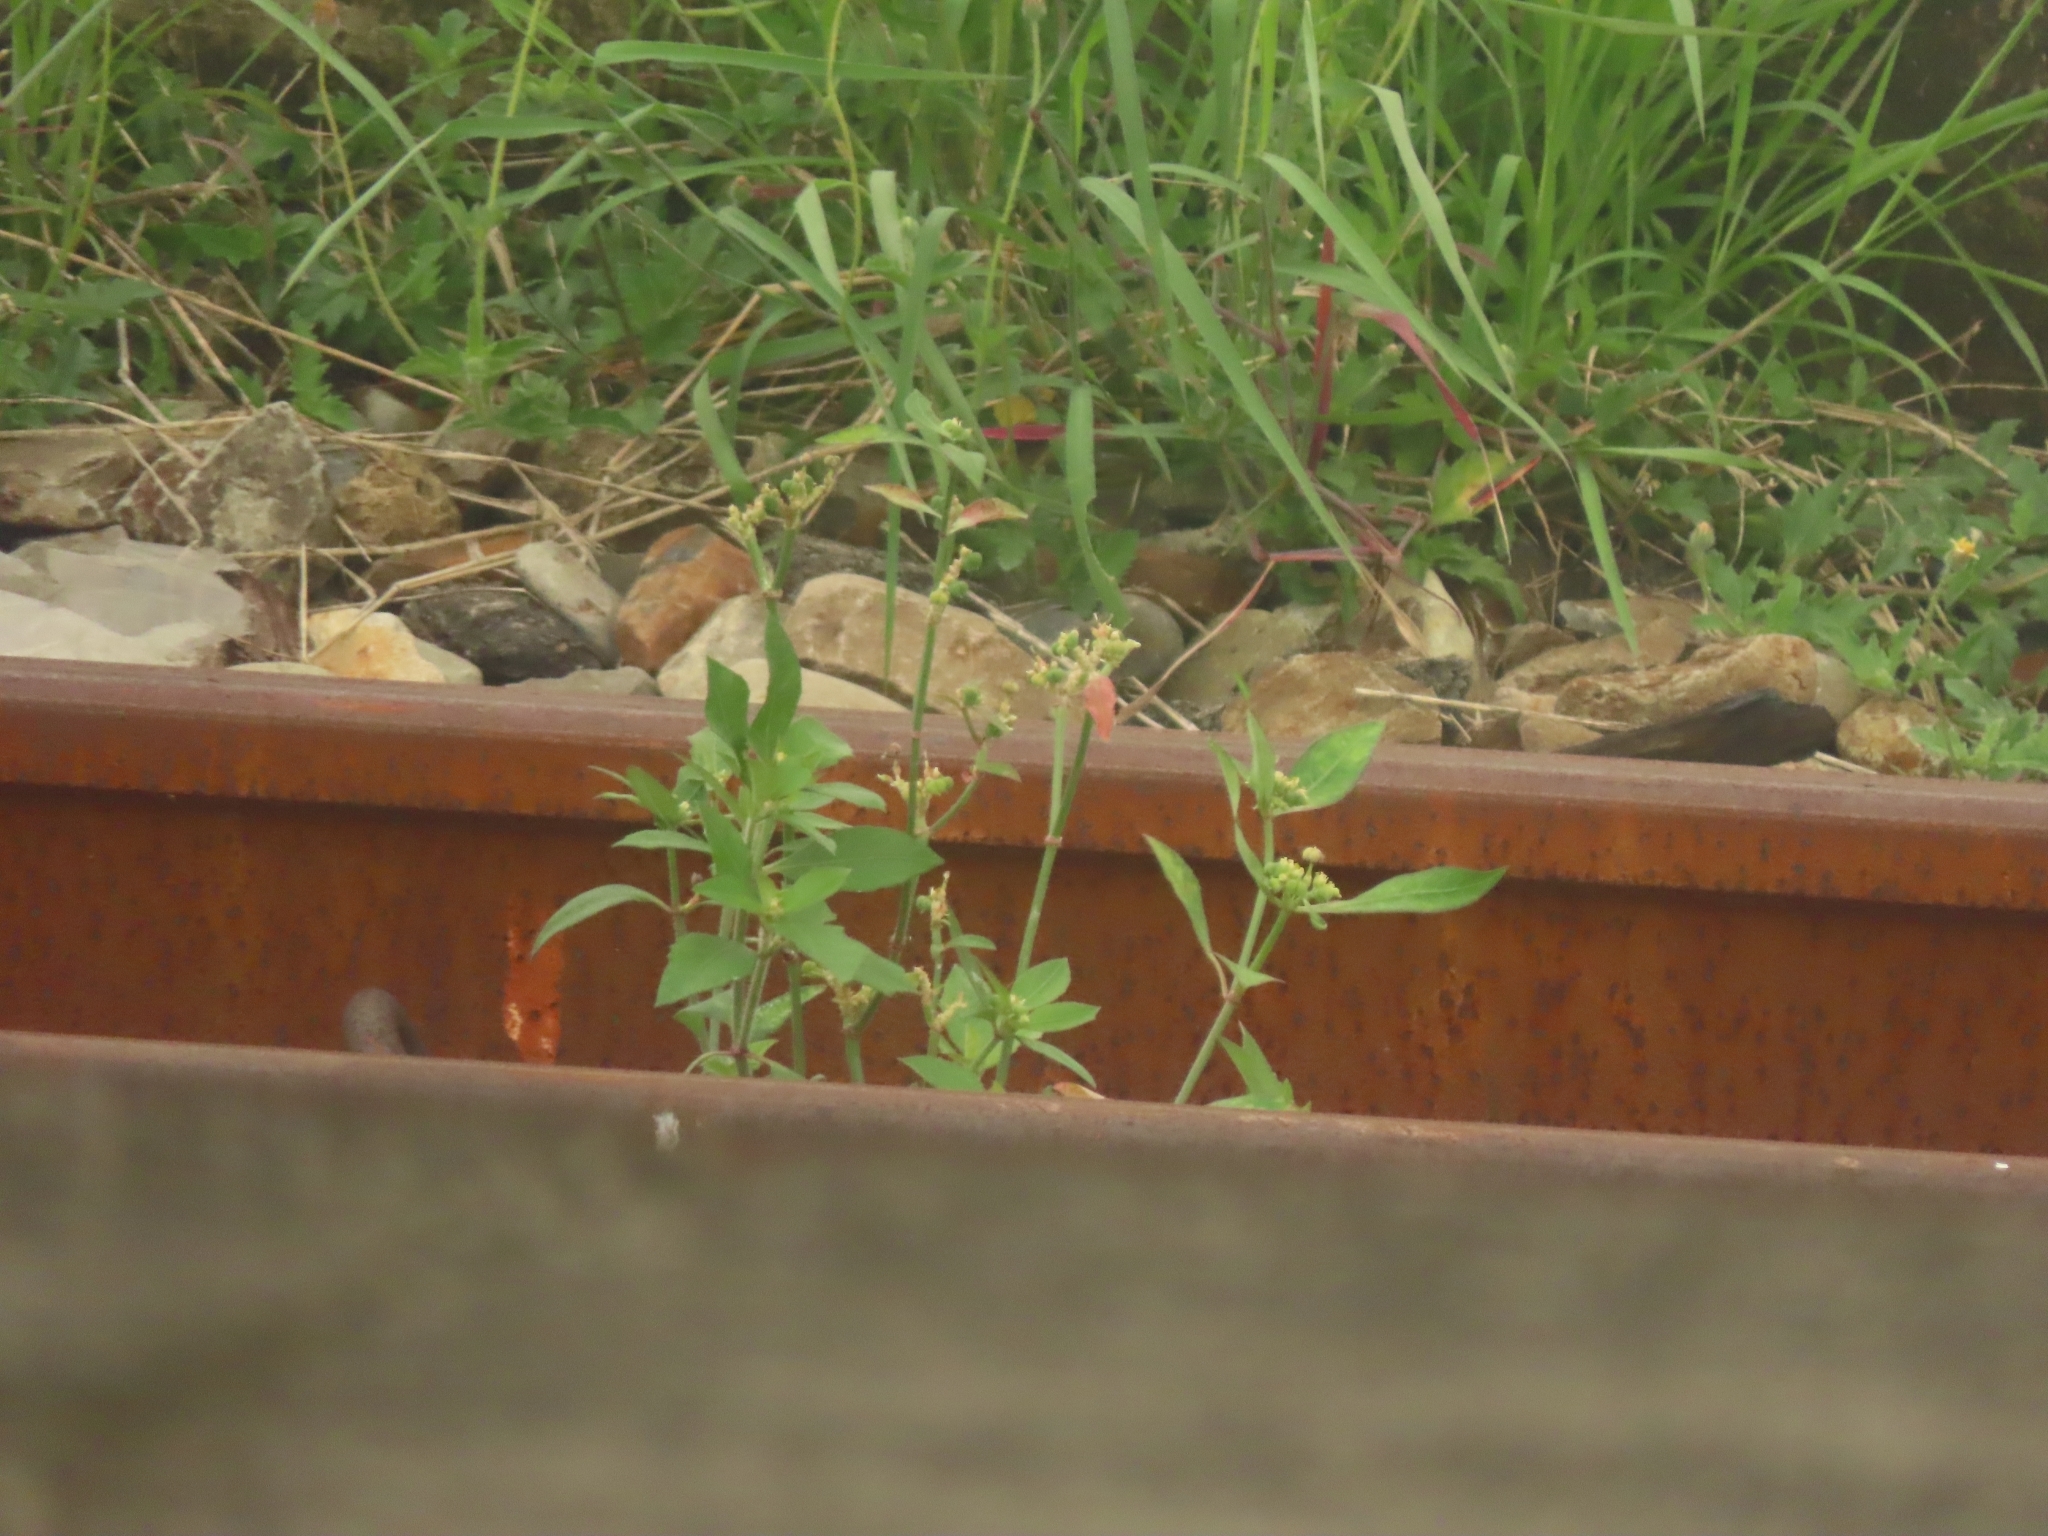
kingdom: Plantae
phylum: Tracheophyta
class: Magnoliopsida
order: Malpighiales
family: Euphorbiaceae
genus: Euphorbia
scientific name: Euphorbia heterophylla
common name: Mexican fireplant
